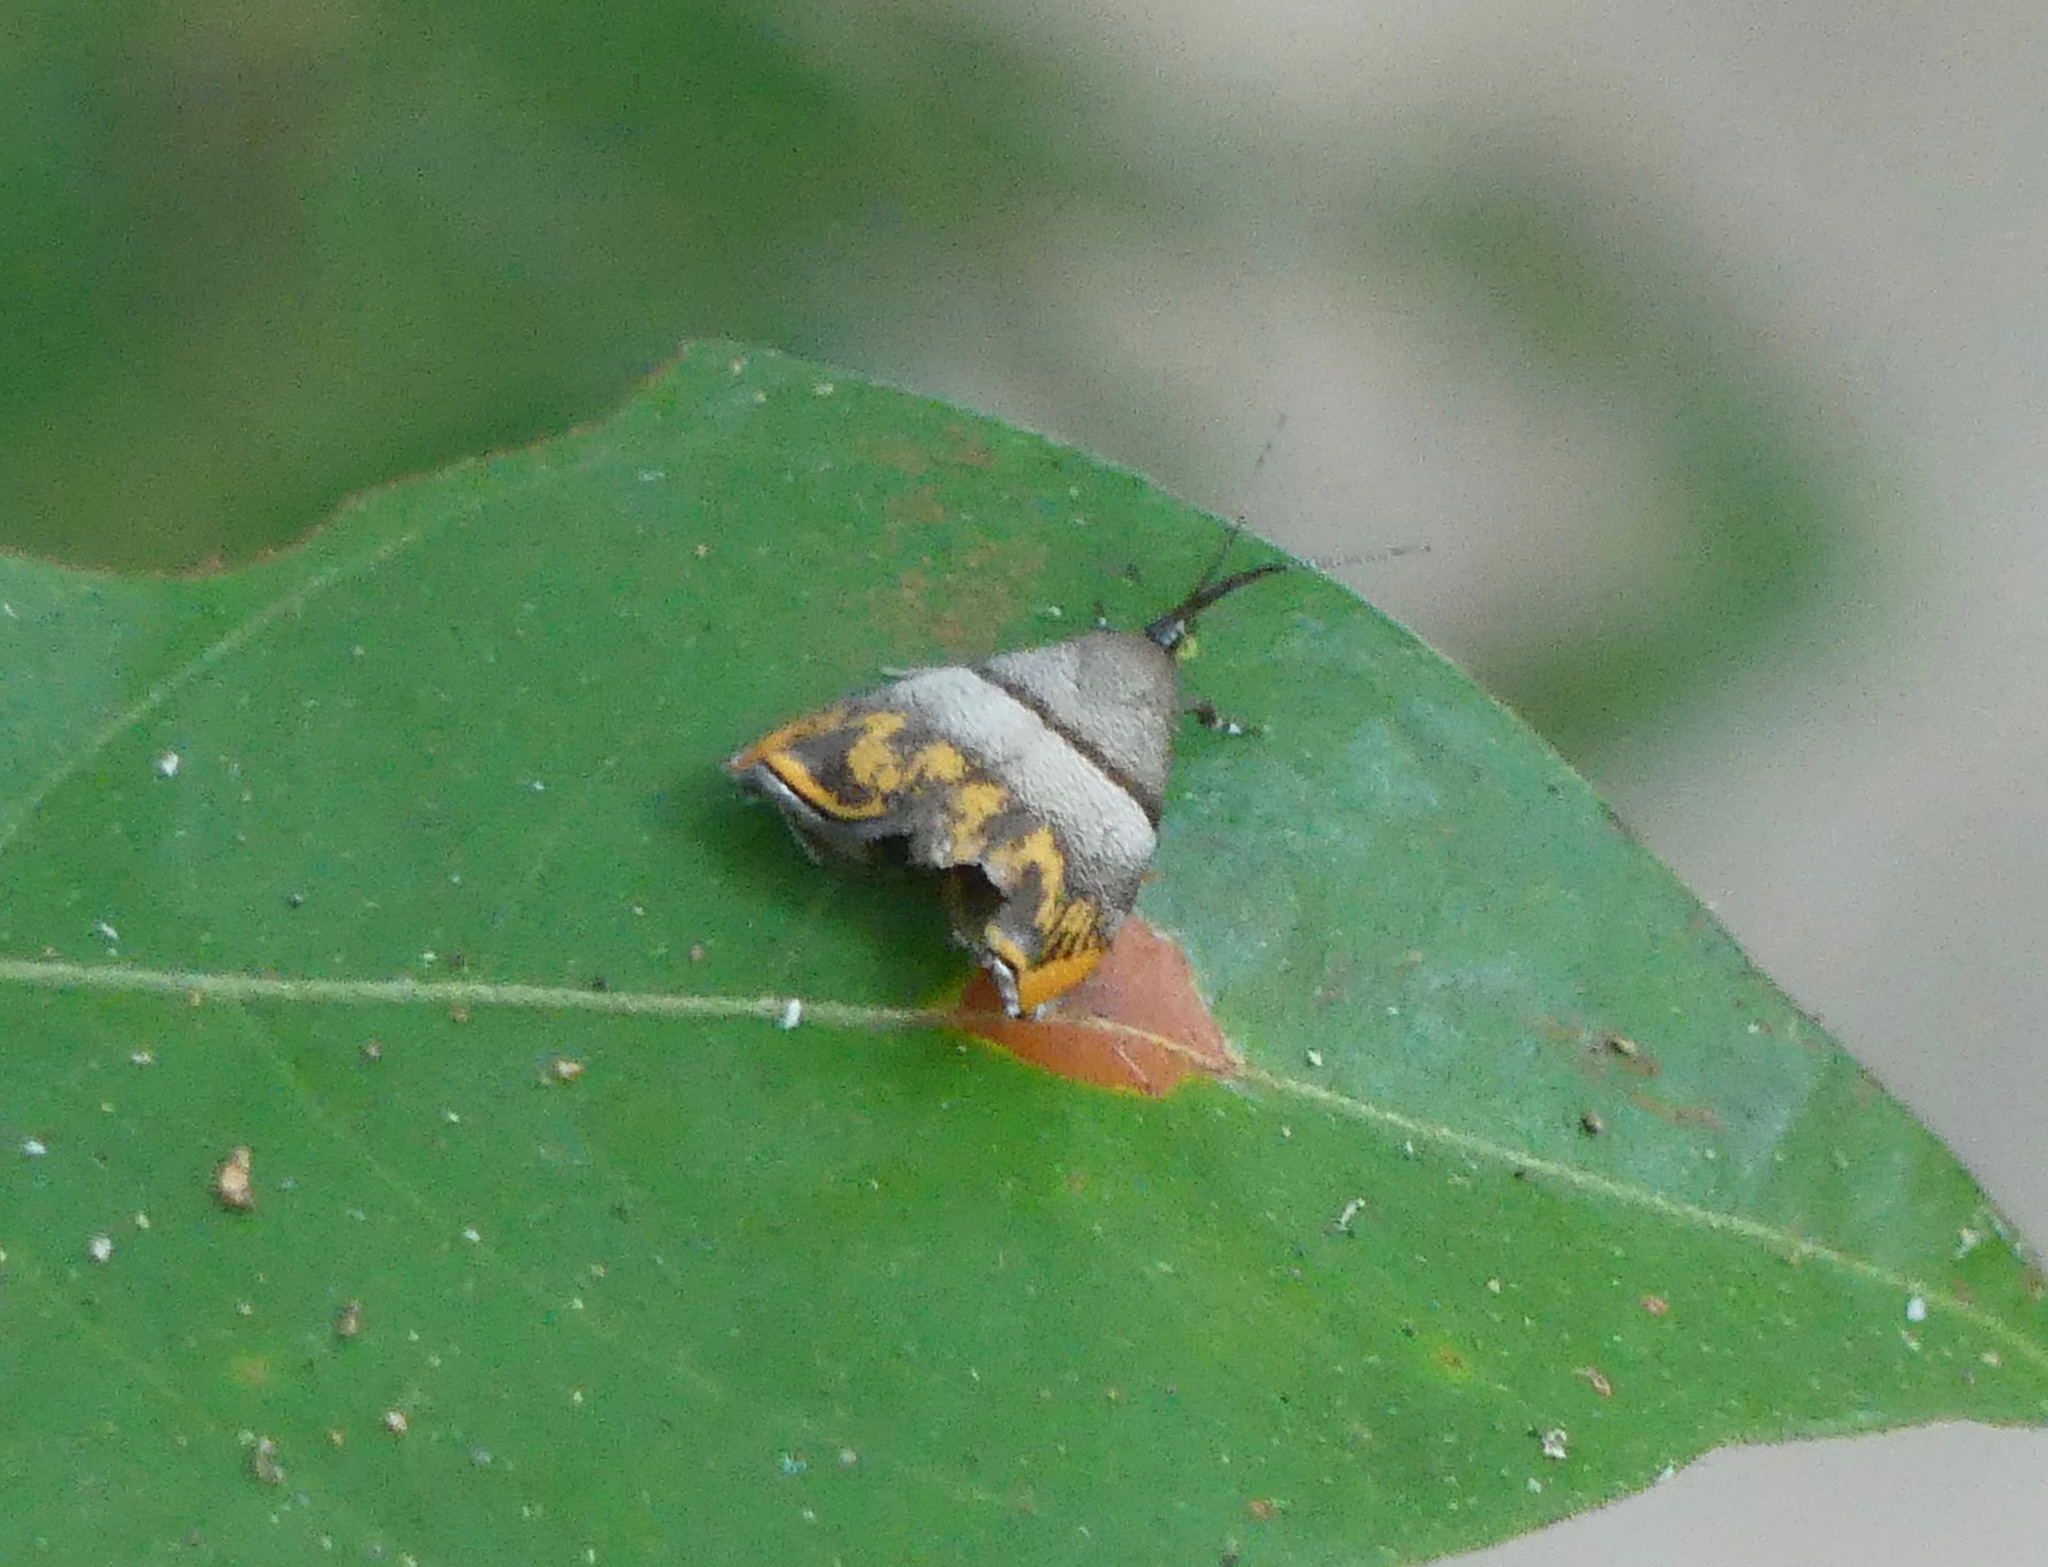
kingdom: Animalia
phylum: Arthropoda
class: Insecta
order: Lepidoptera
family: Choreutidae
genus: Tortyra
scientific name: Tortyra bigerana
